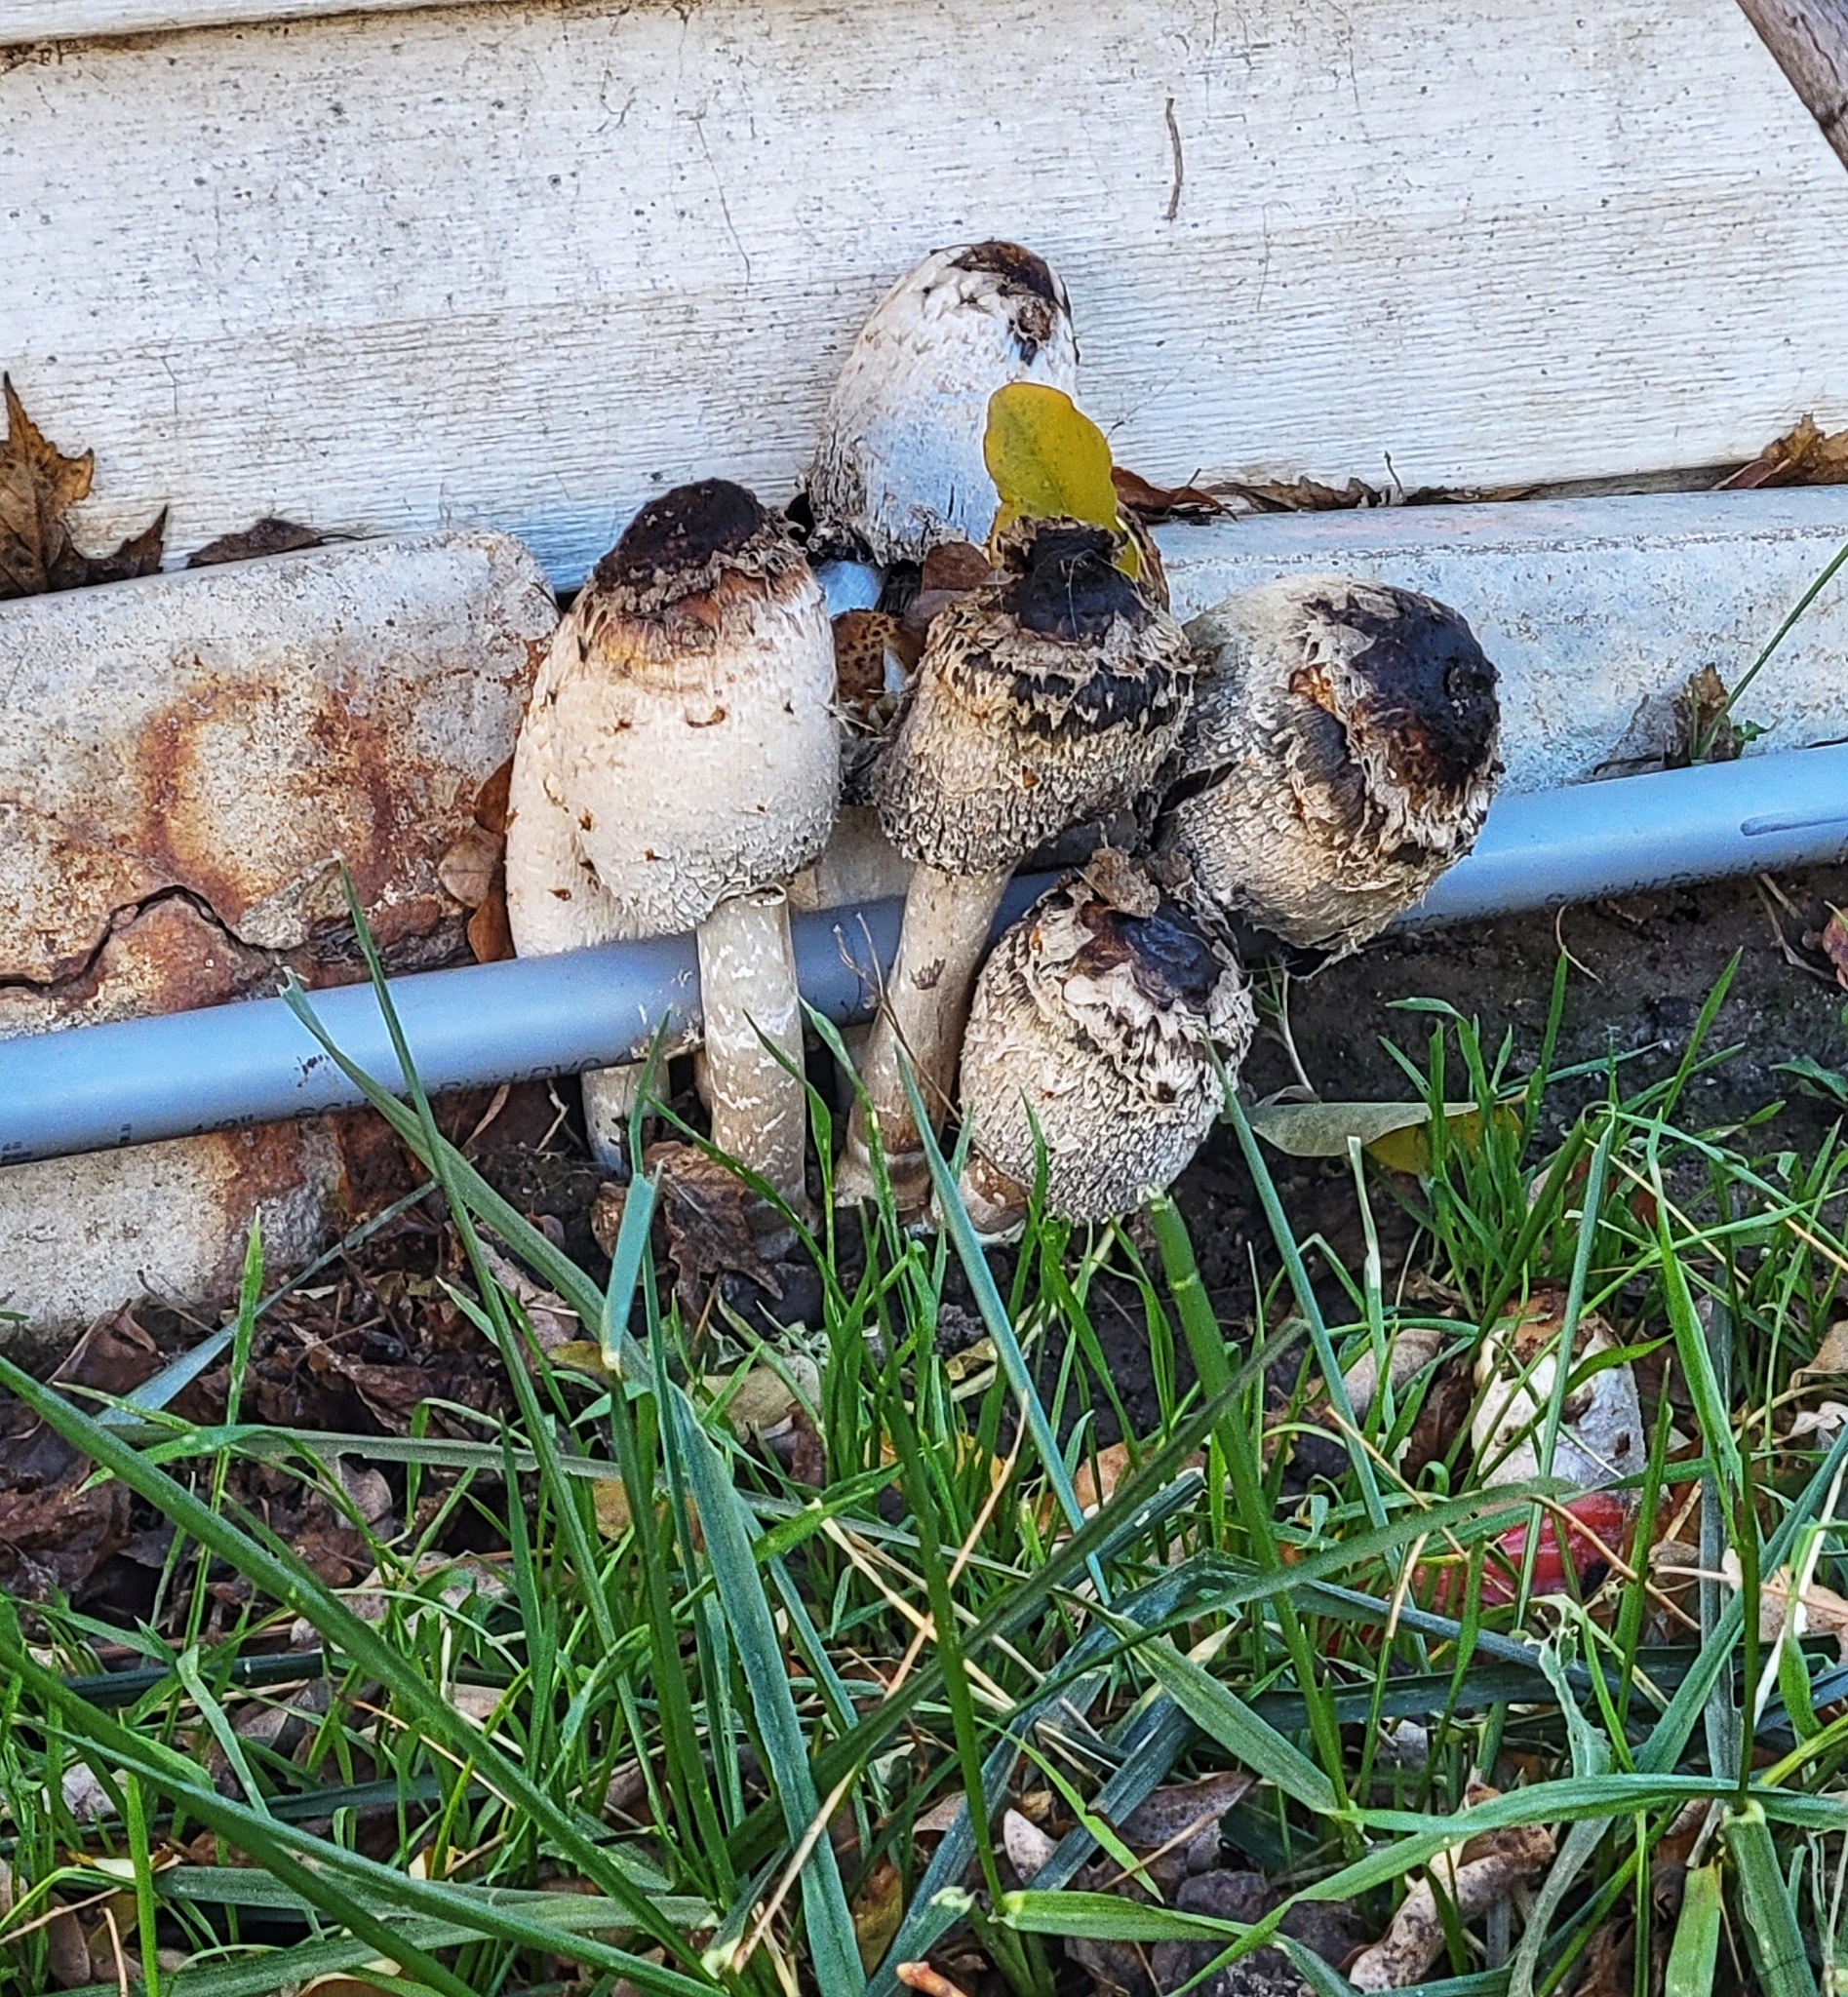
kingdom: Fungi
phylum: Basidiomycota
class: Agaricomycetes
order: Agaricales
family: Agaricaceae
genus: Coprinus
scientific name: Coprinus comatus
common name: Lawyer's wig
